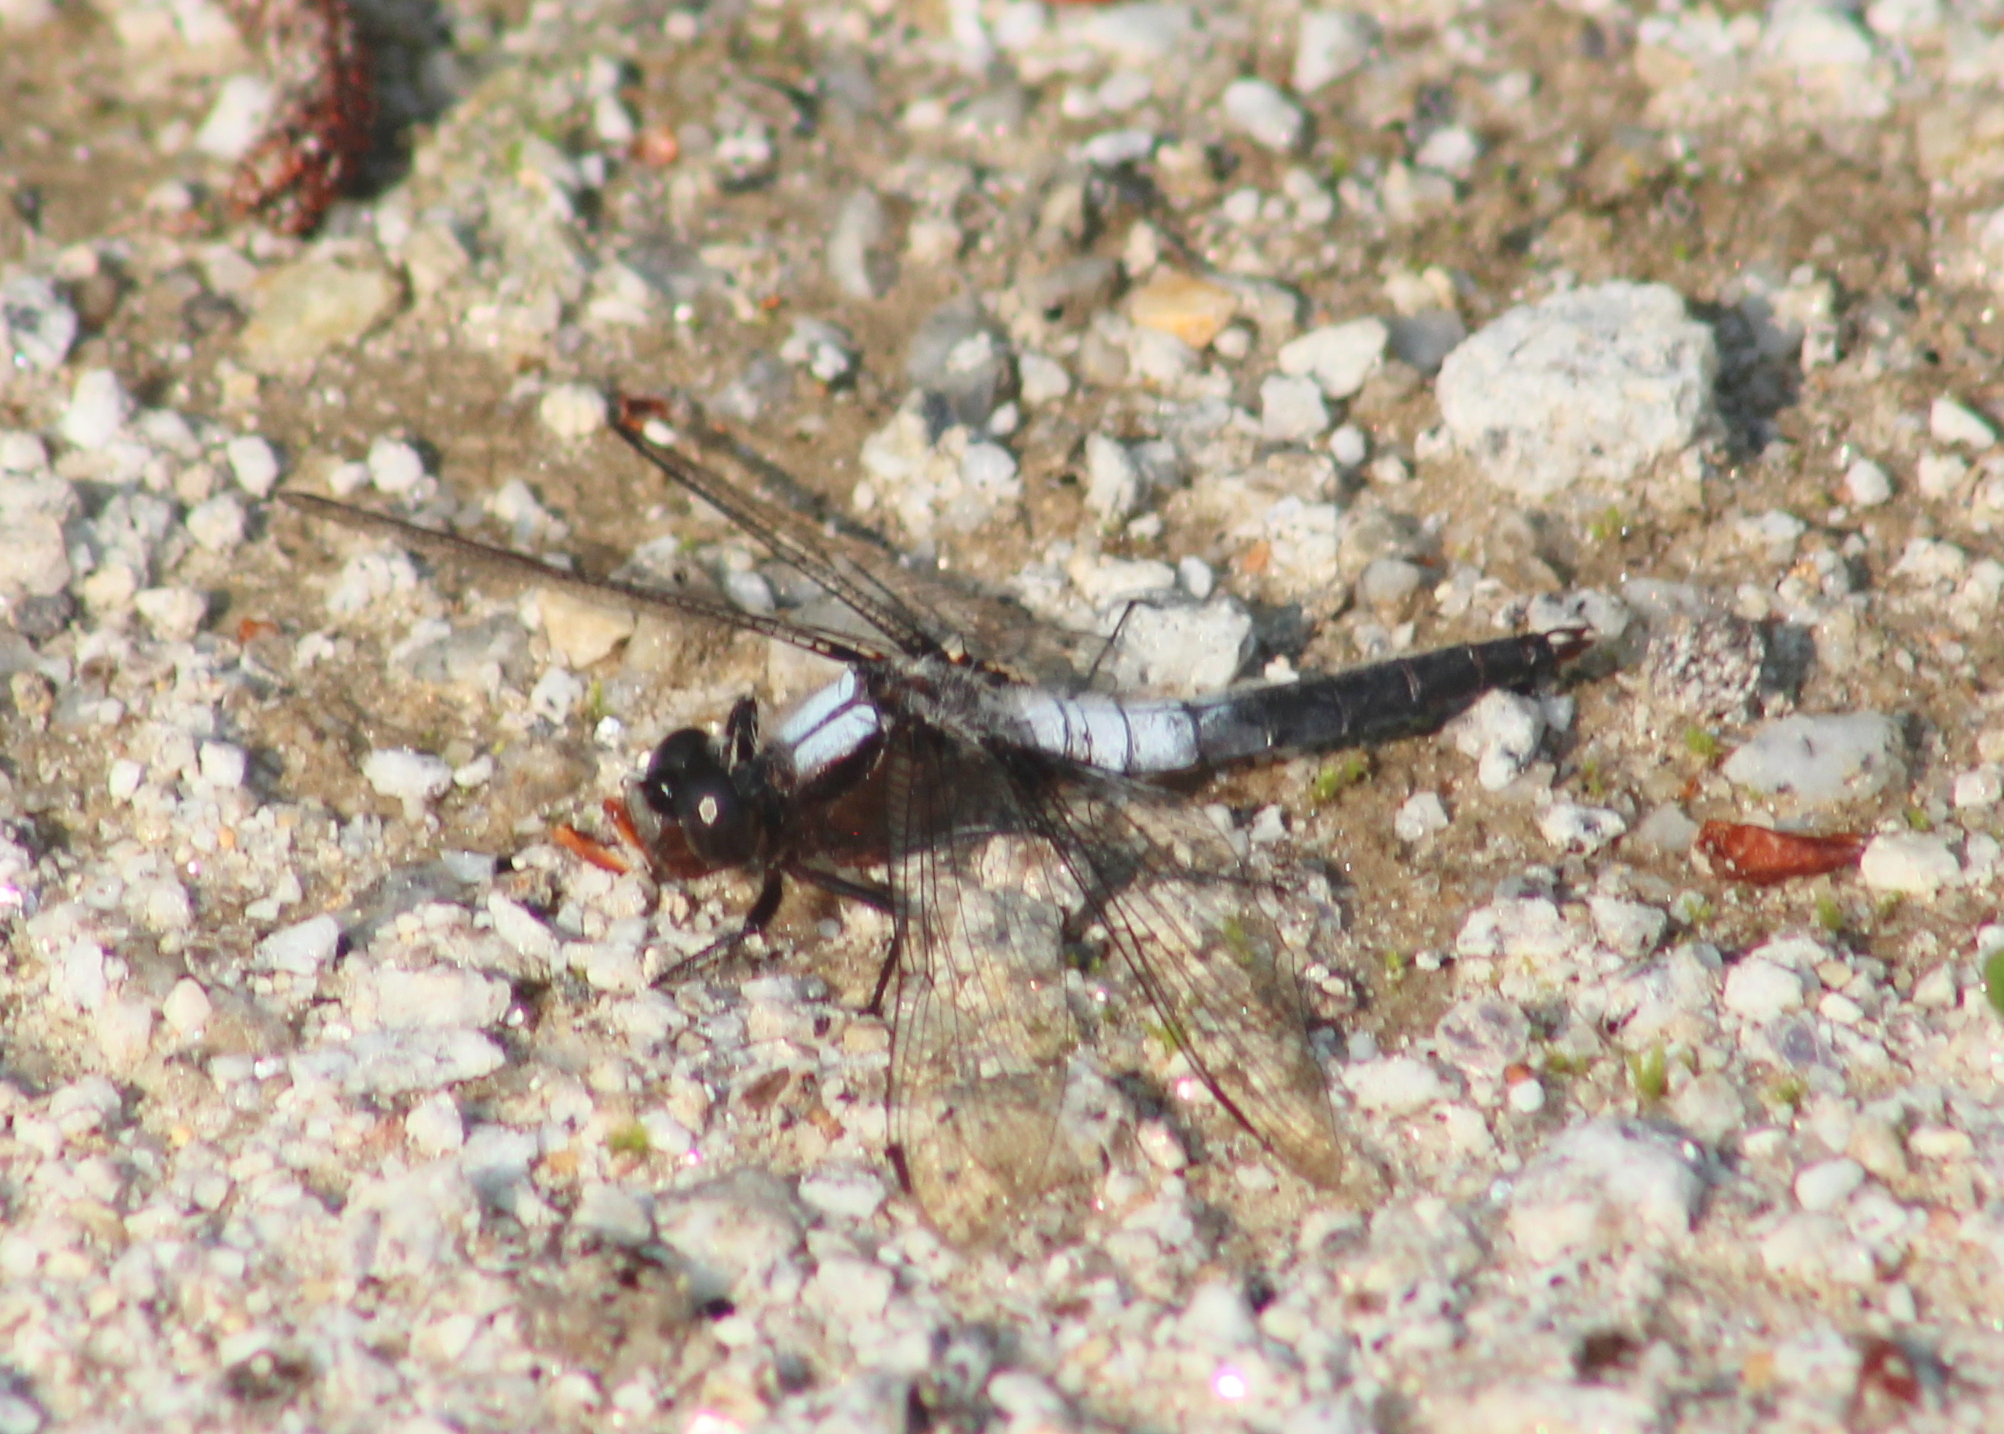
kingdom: Animalia
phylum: Arthropoda
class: Insecta
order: Odonata
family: Libellulidae
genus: Ladona
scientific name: Ladona julia
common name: Chalk-fronted corporal
